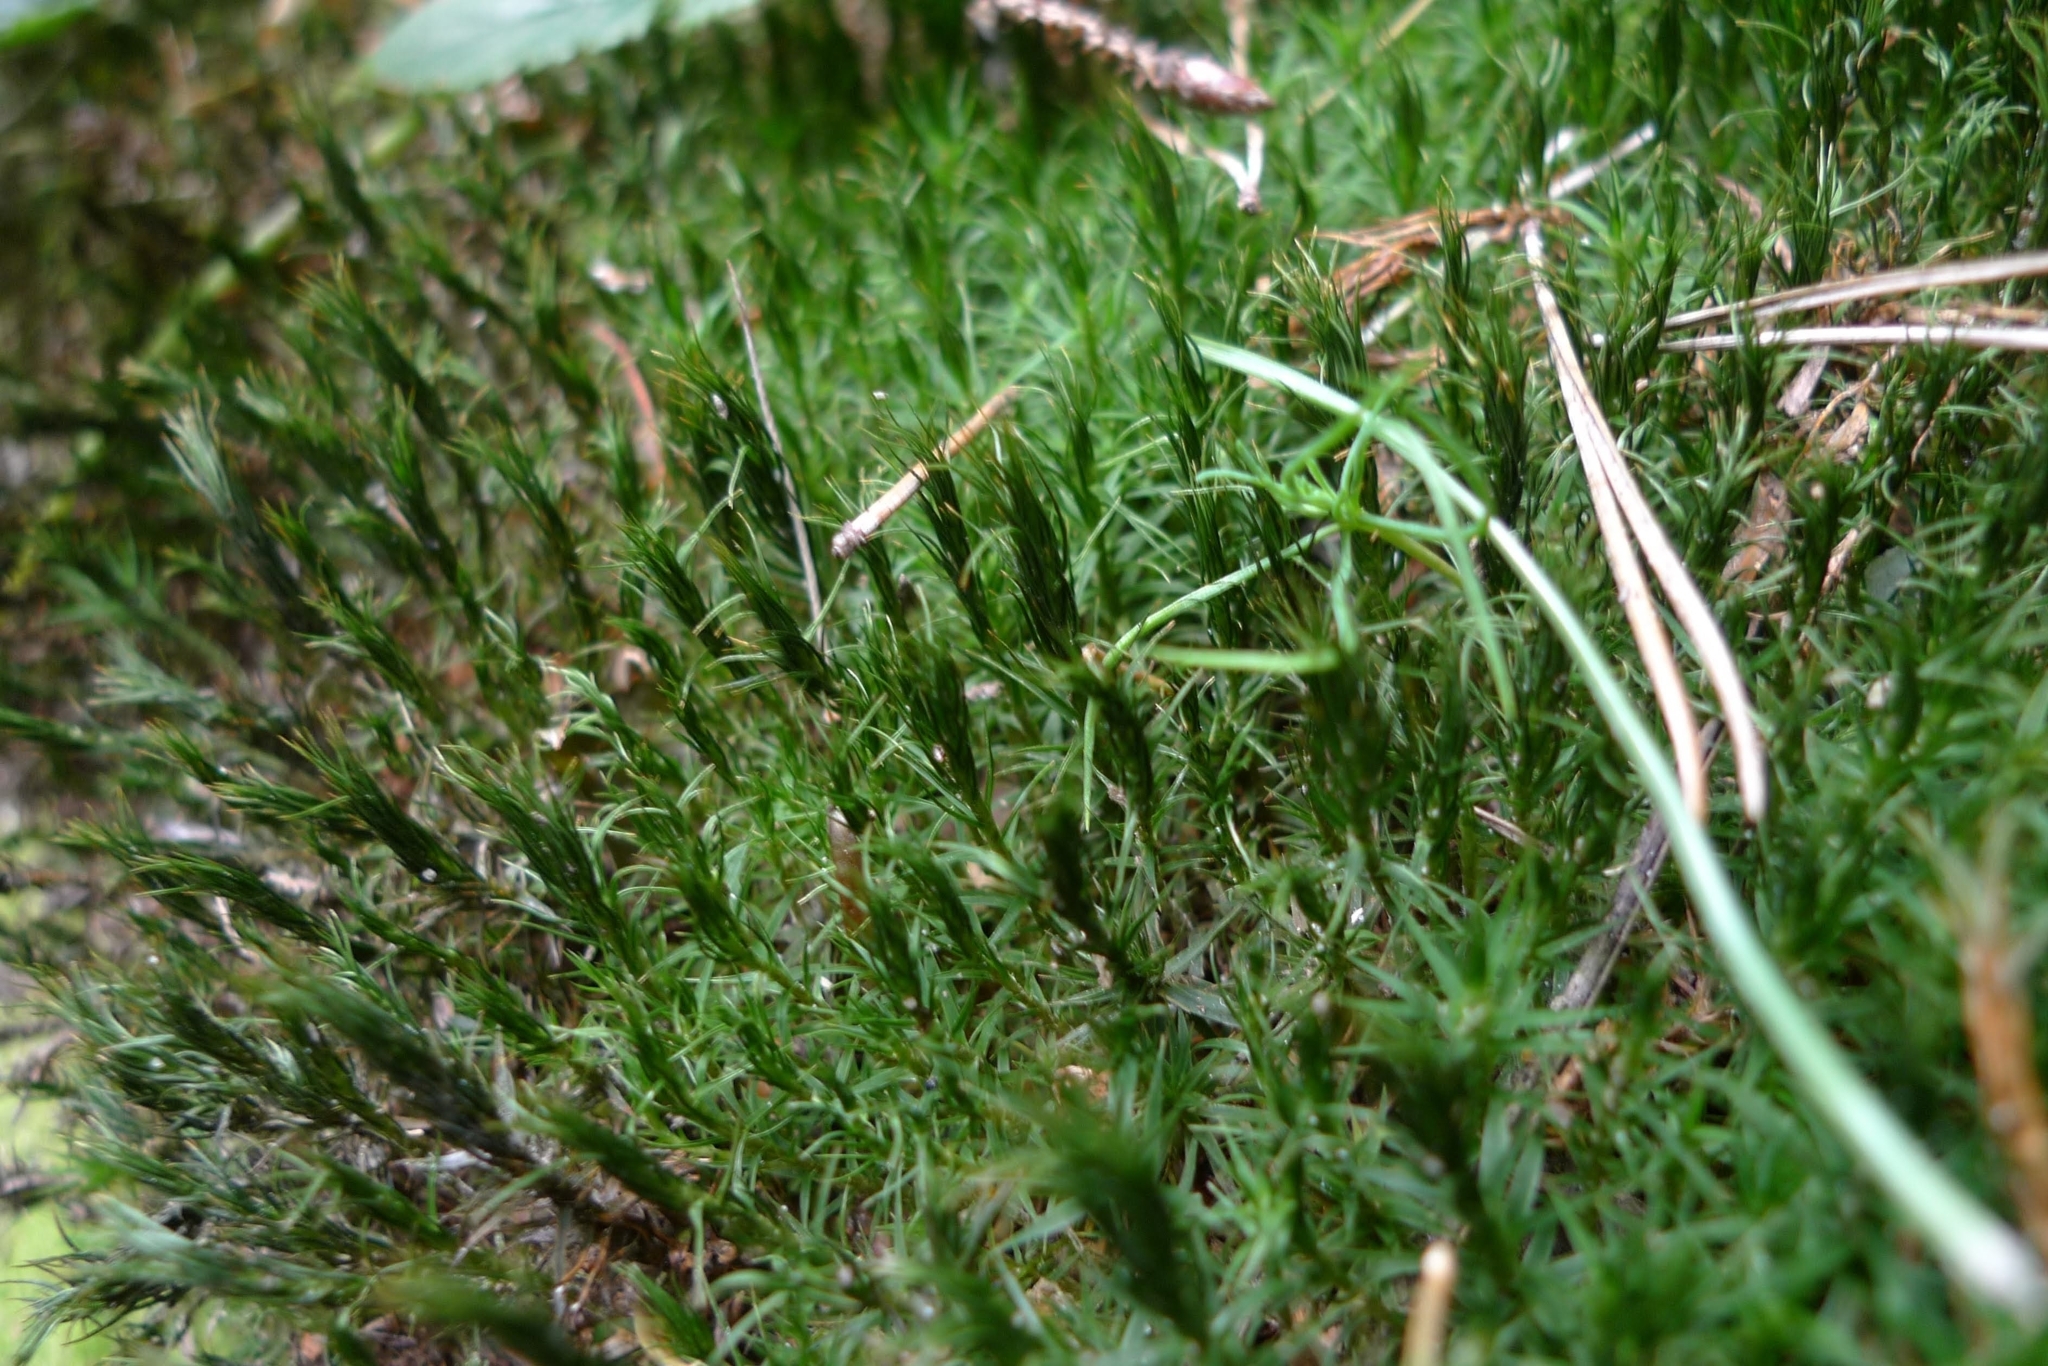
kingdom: Plantae
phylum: Bryophyta
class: Polytrichopsida
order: Polytrichales
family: Polytrichaceae
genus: Polytrichum
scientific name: Polytrichum formosum
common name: Bank haircap moss
